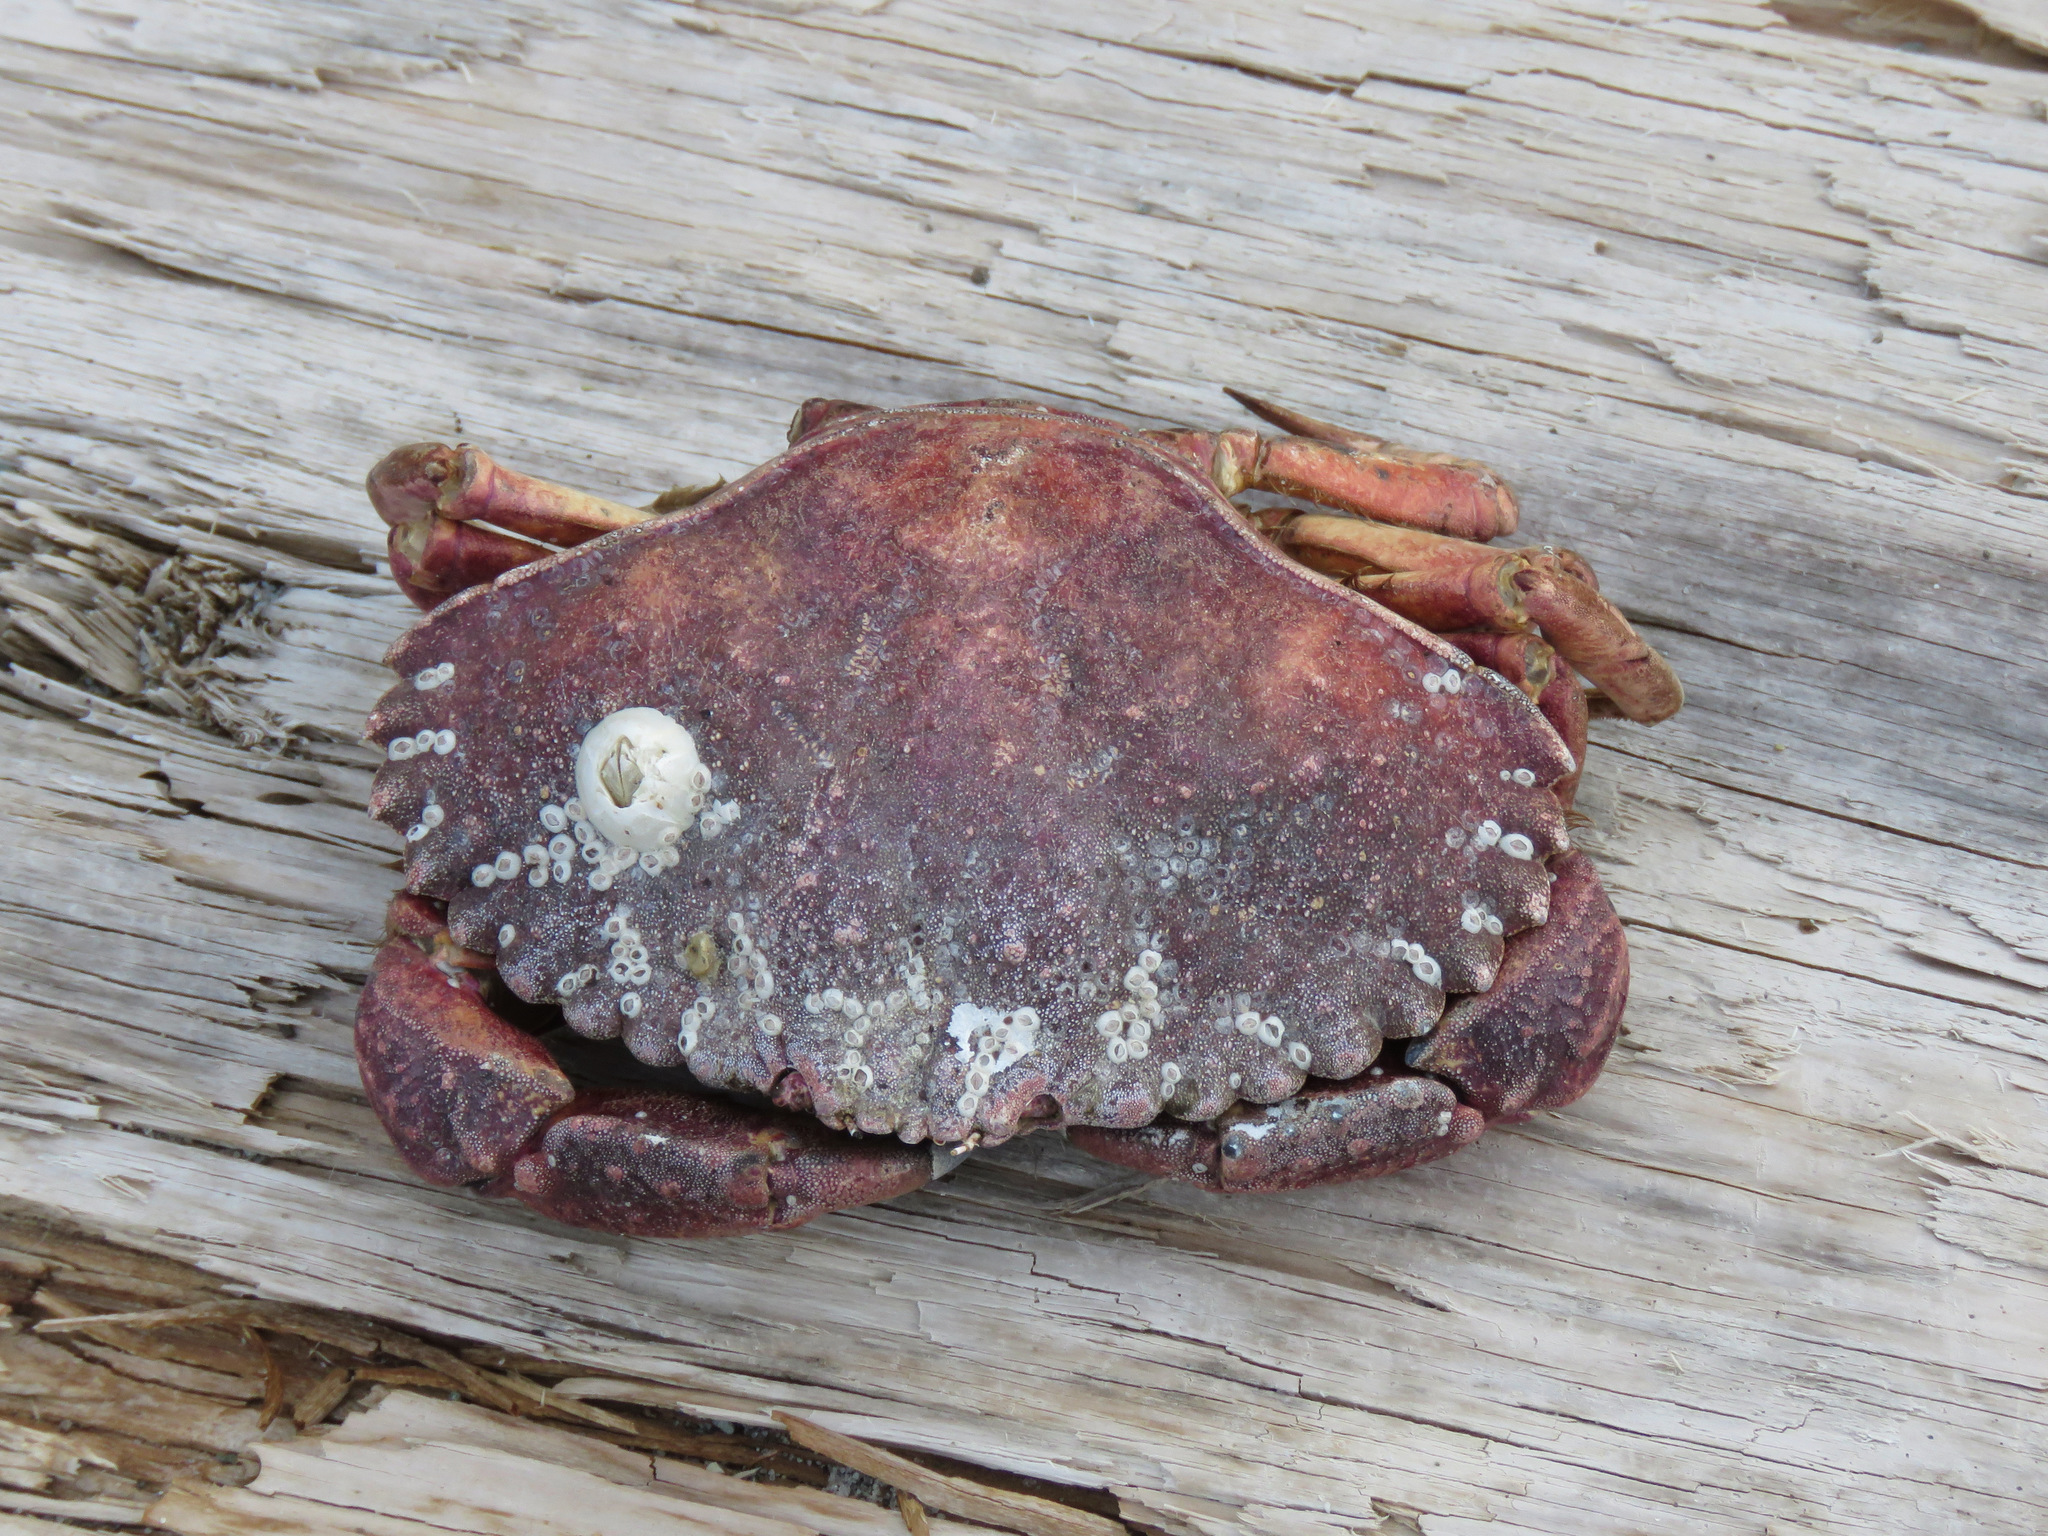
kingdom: Animalia
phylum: Arthropoda
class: Malacostraca
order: Decapoda
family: Cancridae
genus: Cancer
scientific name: Cancer productus
